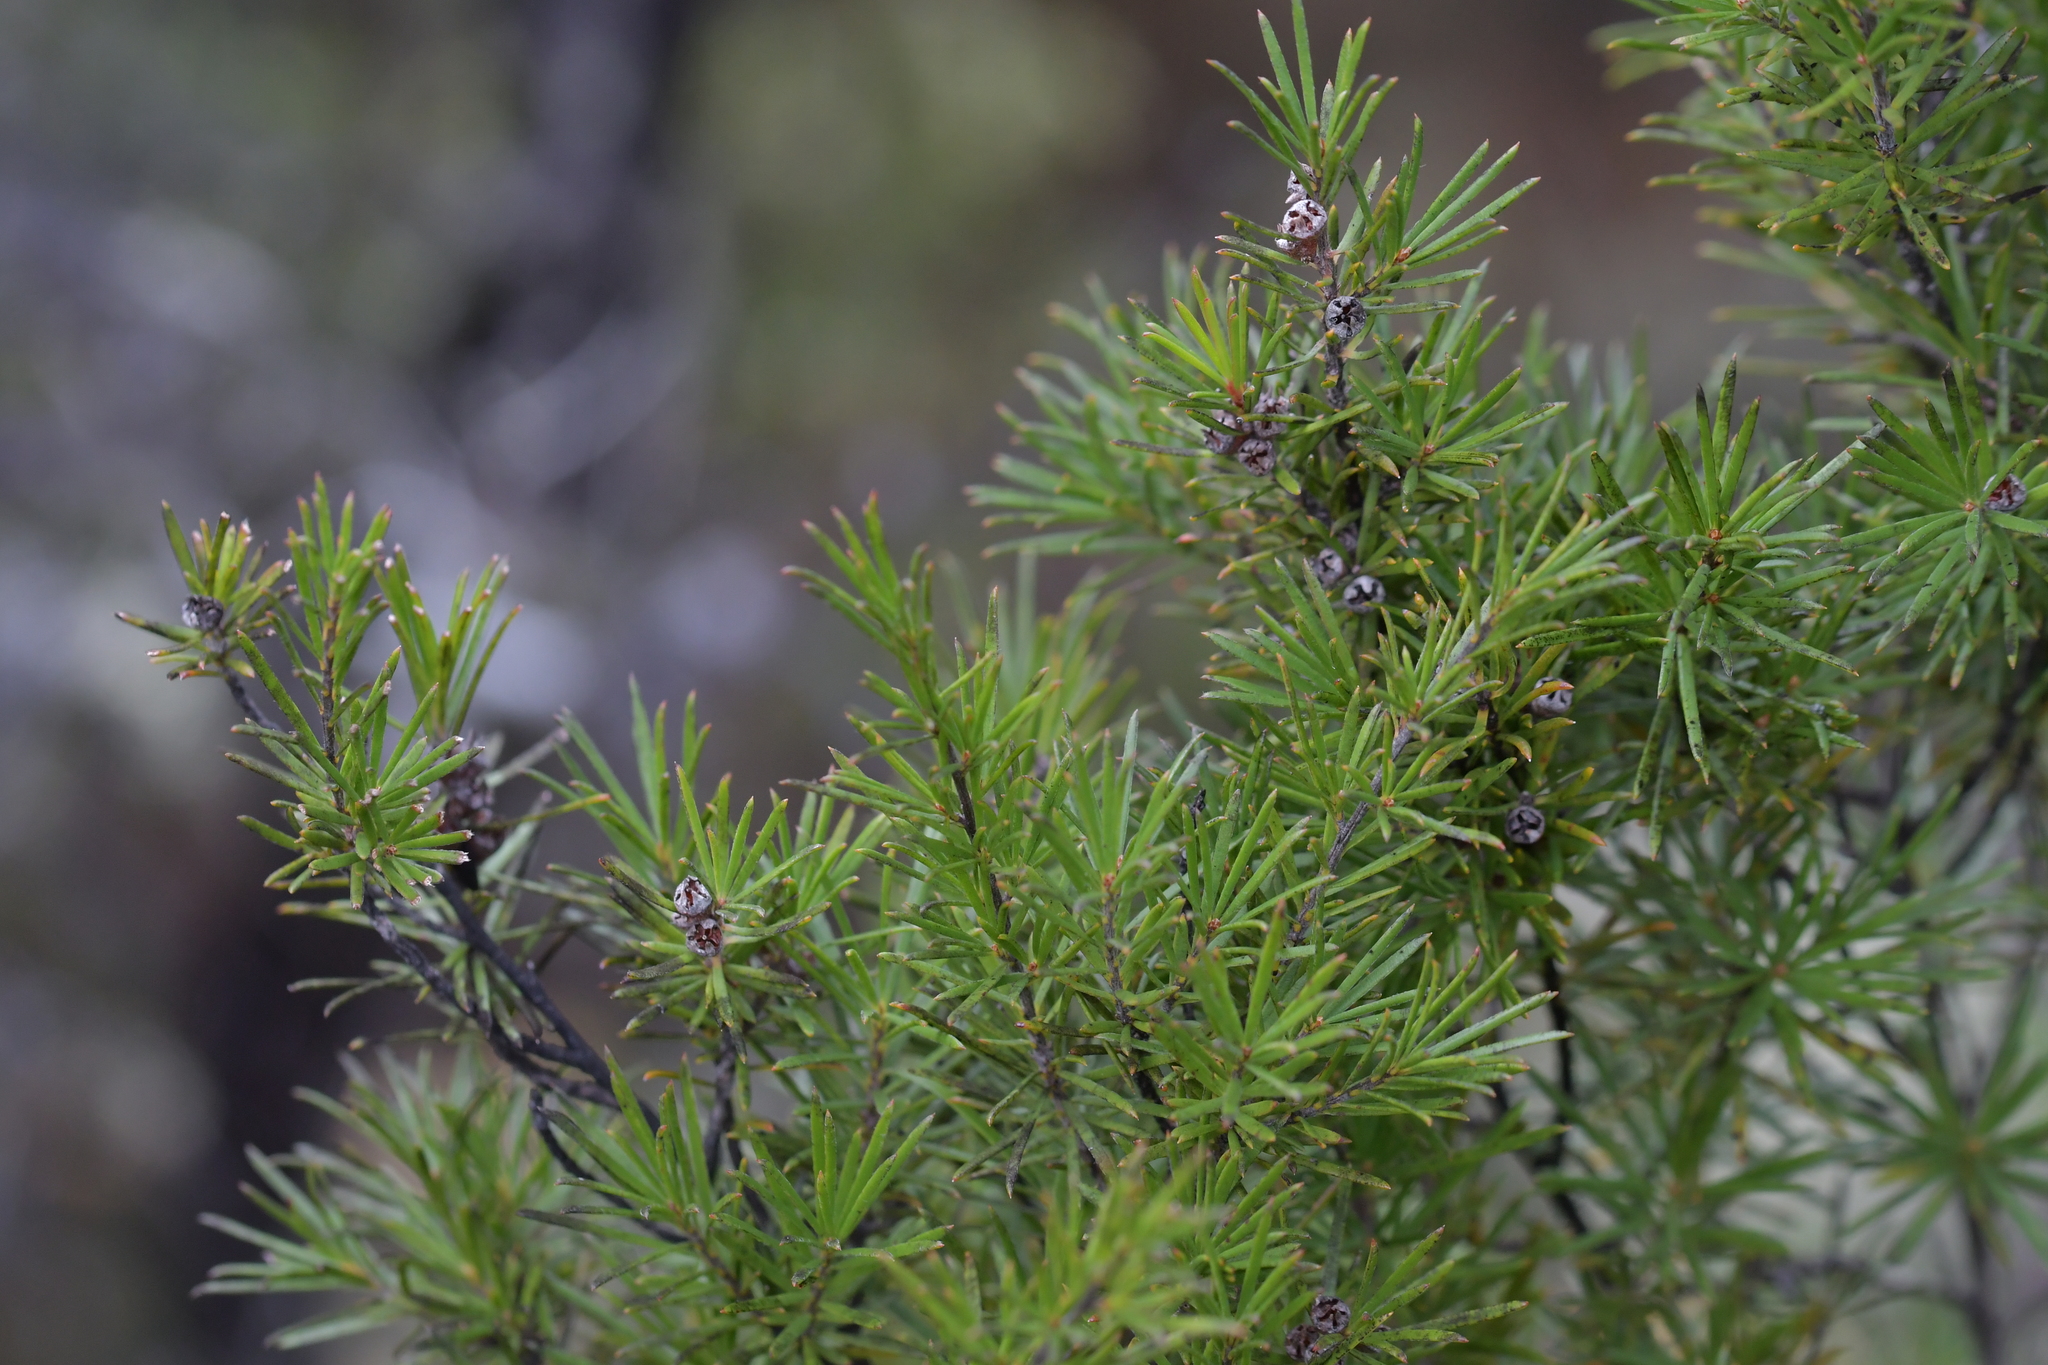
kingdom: Plantae
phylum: Tracheophyta
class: Magnoliopsida
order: Myrtales
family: Myrtaceae
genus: Kunzea
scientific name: Kunzea linearis
